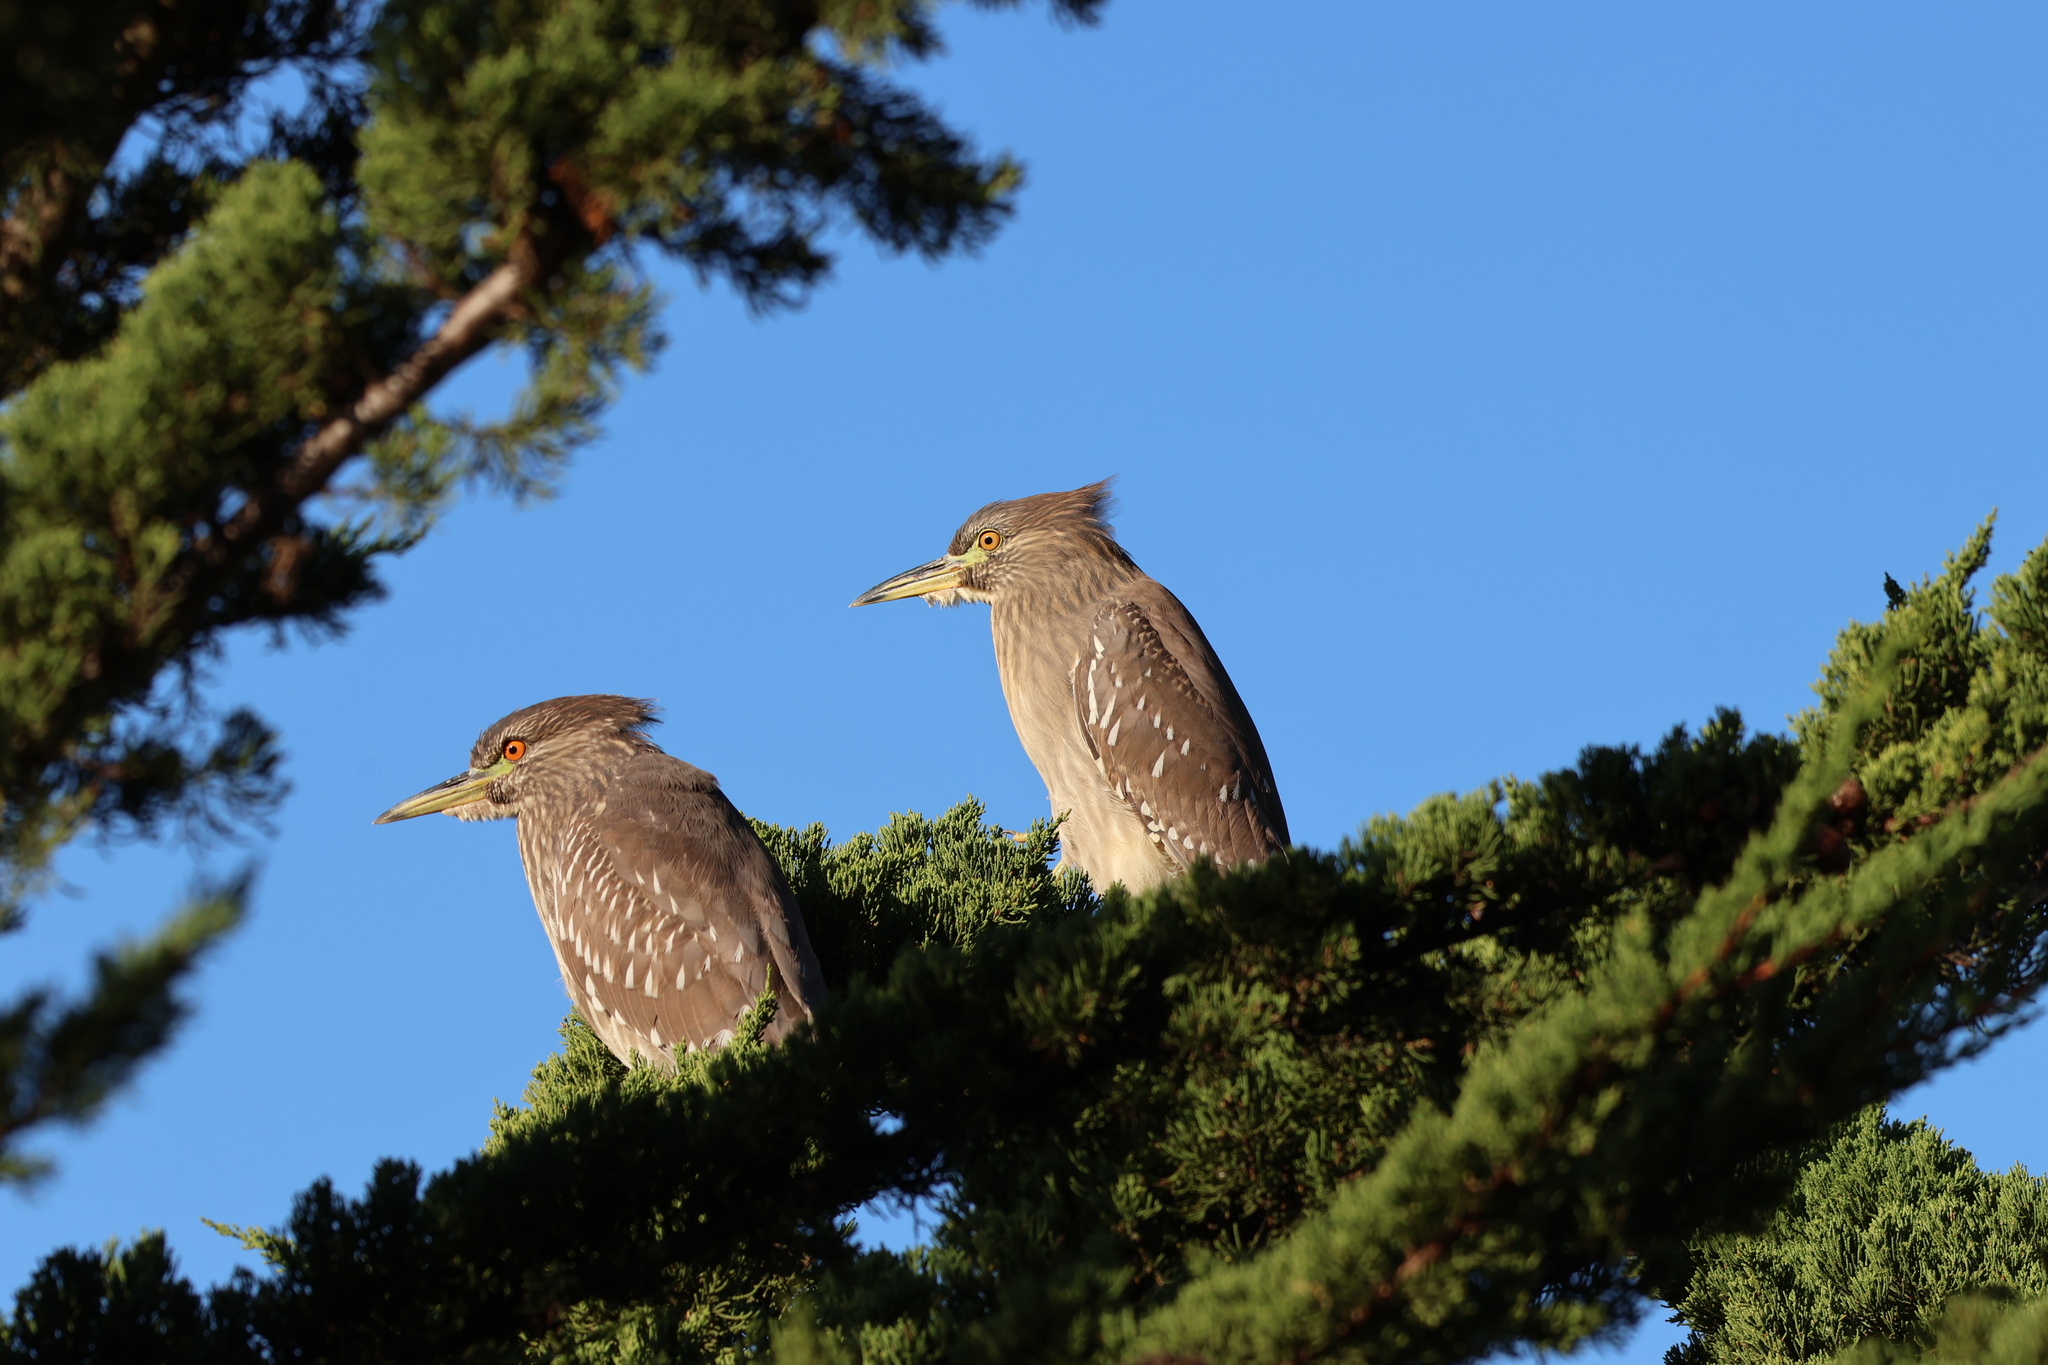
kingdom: Animalia
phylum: Chordata
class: Aves
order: Pelecaniformes
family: Ardeidae
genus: Nycticorax
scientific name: Nycticorax nycticorax
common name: Black-crowned night heron
